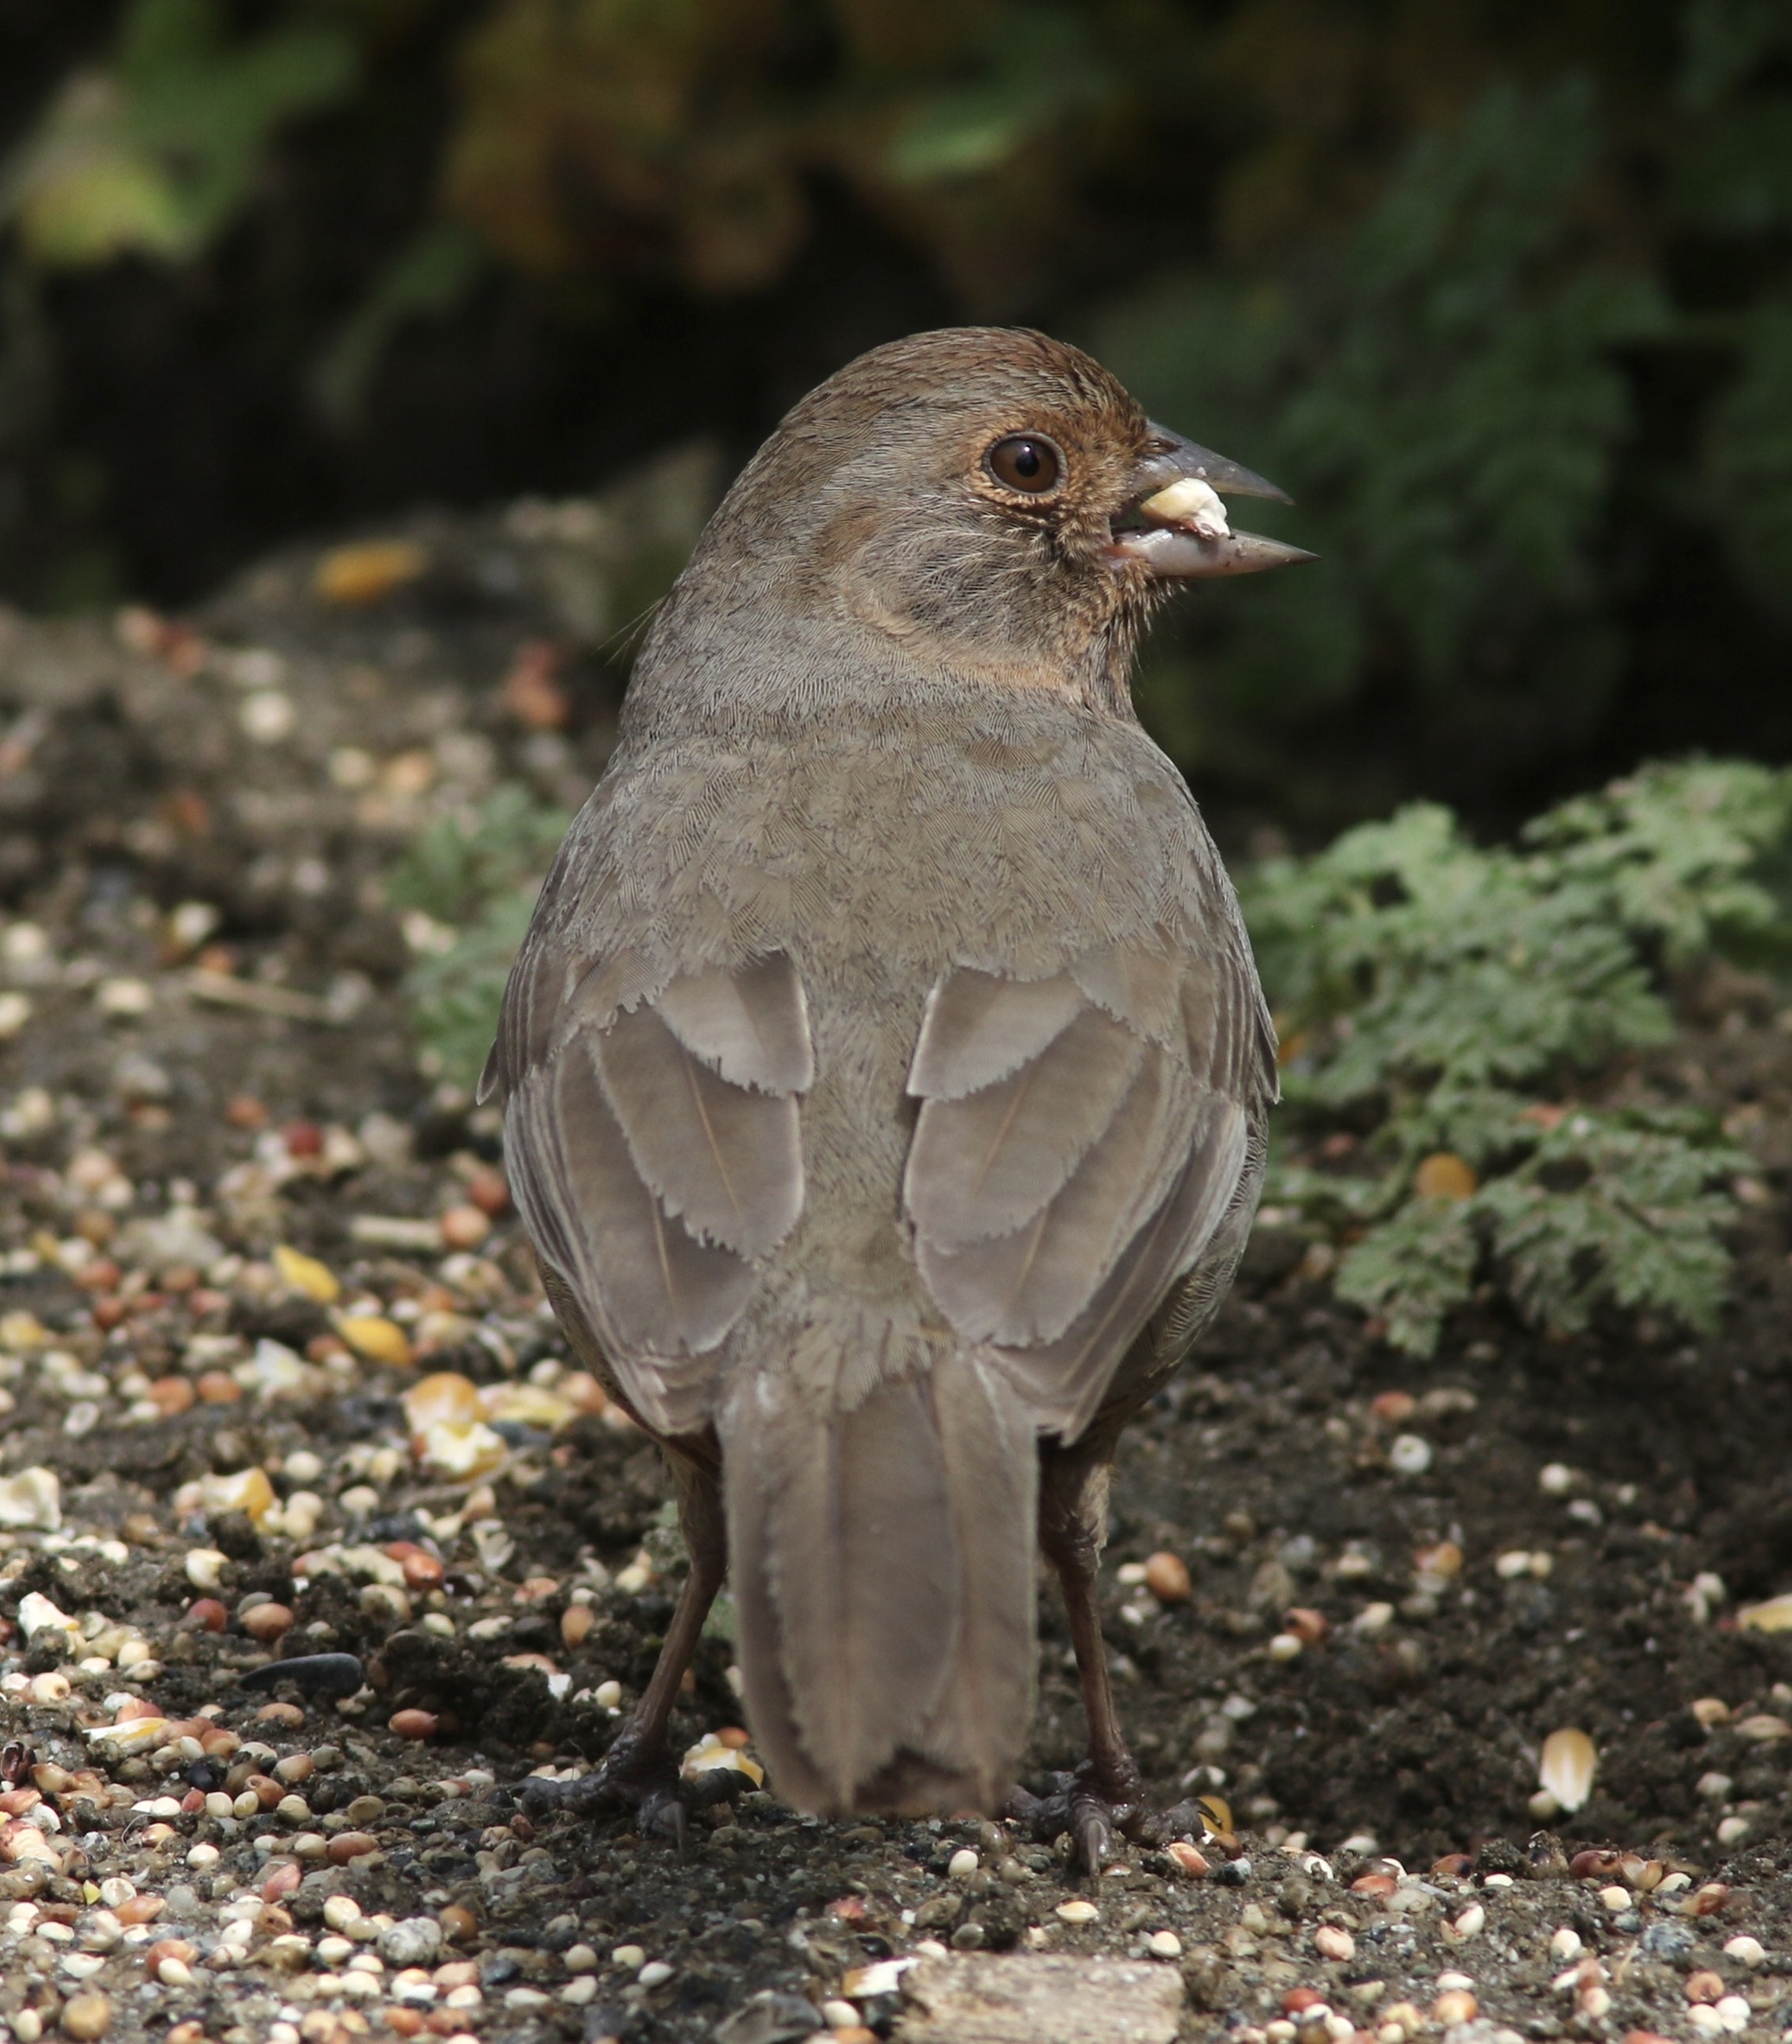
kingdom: Animalia
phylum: Chordata
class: Aves
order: Passeriformes
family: Passerellidae
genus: Melozone
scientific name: Melozone crissalis
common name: California towhee
